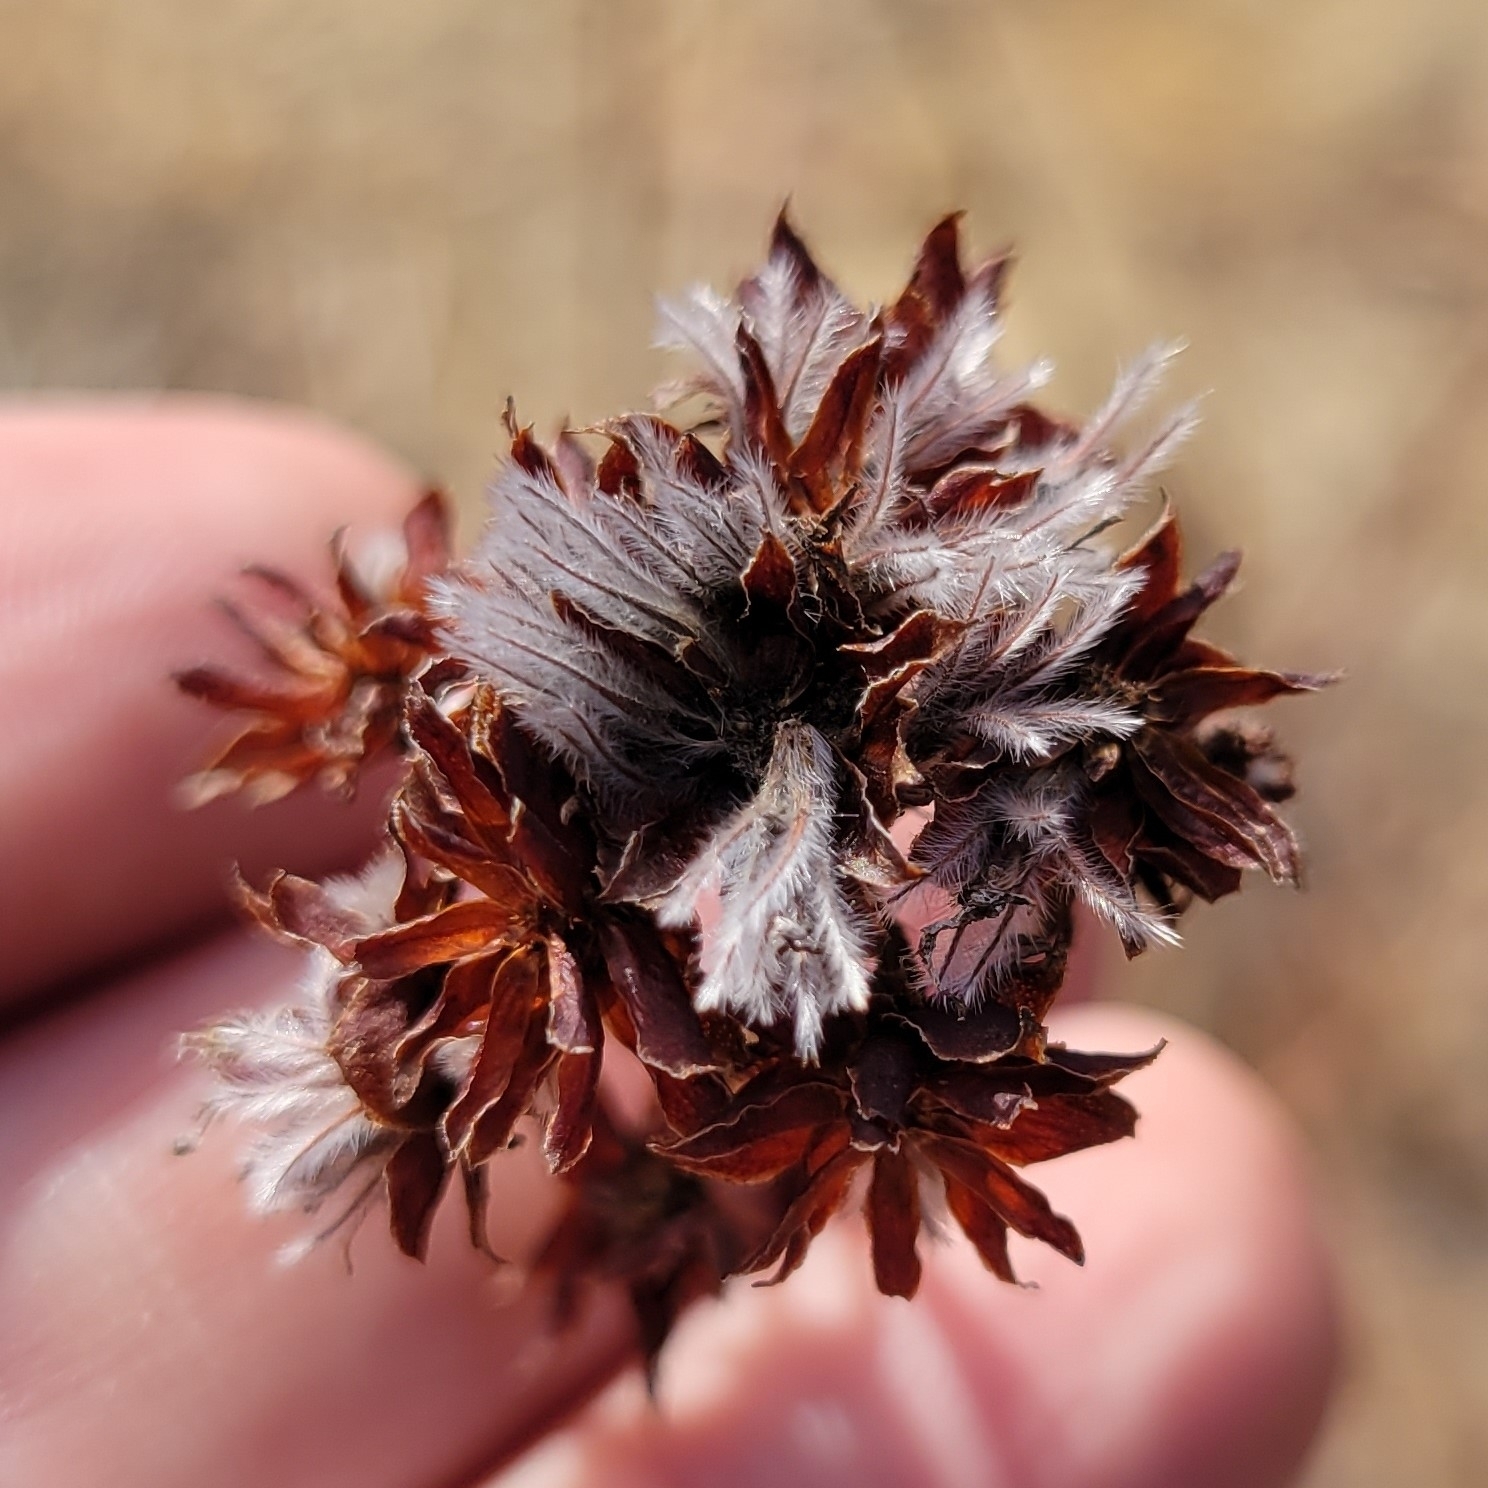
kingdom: Plantae
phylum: Tracheophyta
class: Magnoliopsida
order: Fabales
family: Fabaceae
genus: Dalea
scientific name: Dalea pinnata
